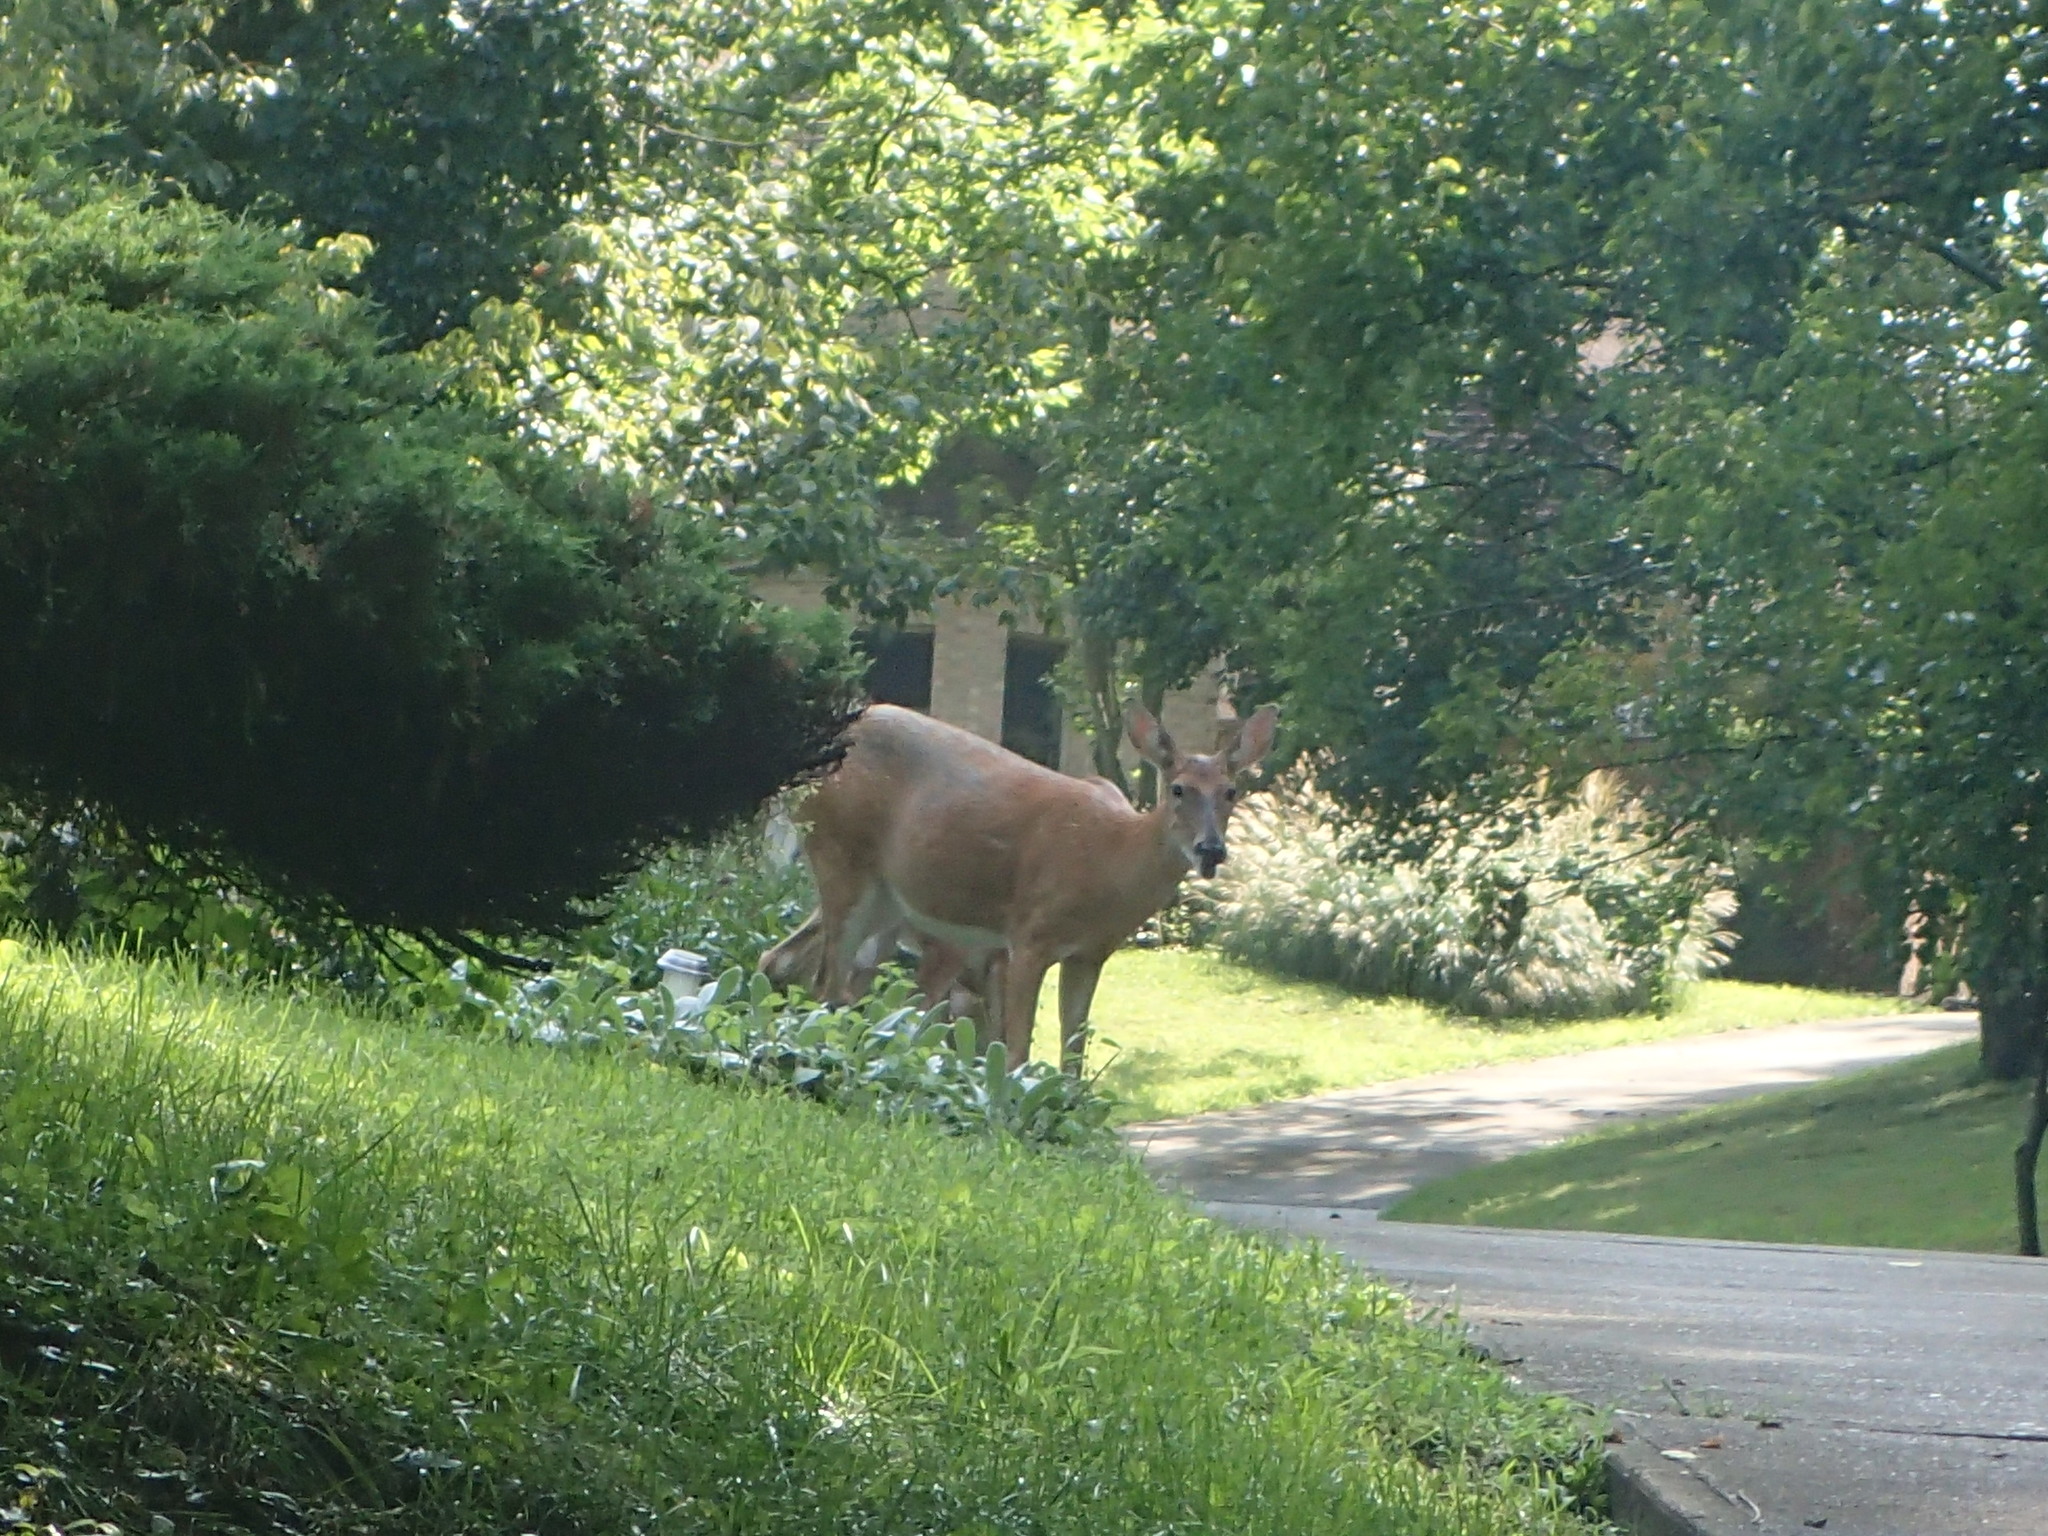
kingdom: Animalia
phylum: Chordata
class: Mammalia
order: Artiodactyla
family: Cervidae
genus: Odocoileus
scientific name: Odocoileus virginianus
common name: White-tailed deer
